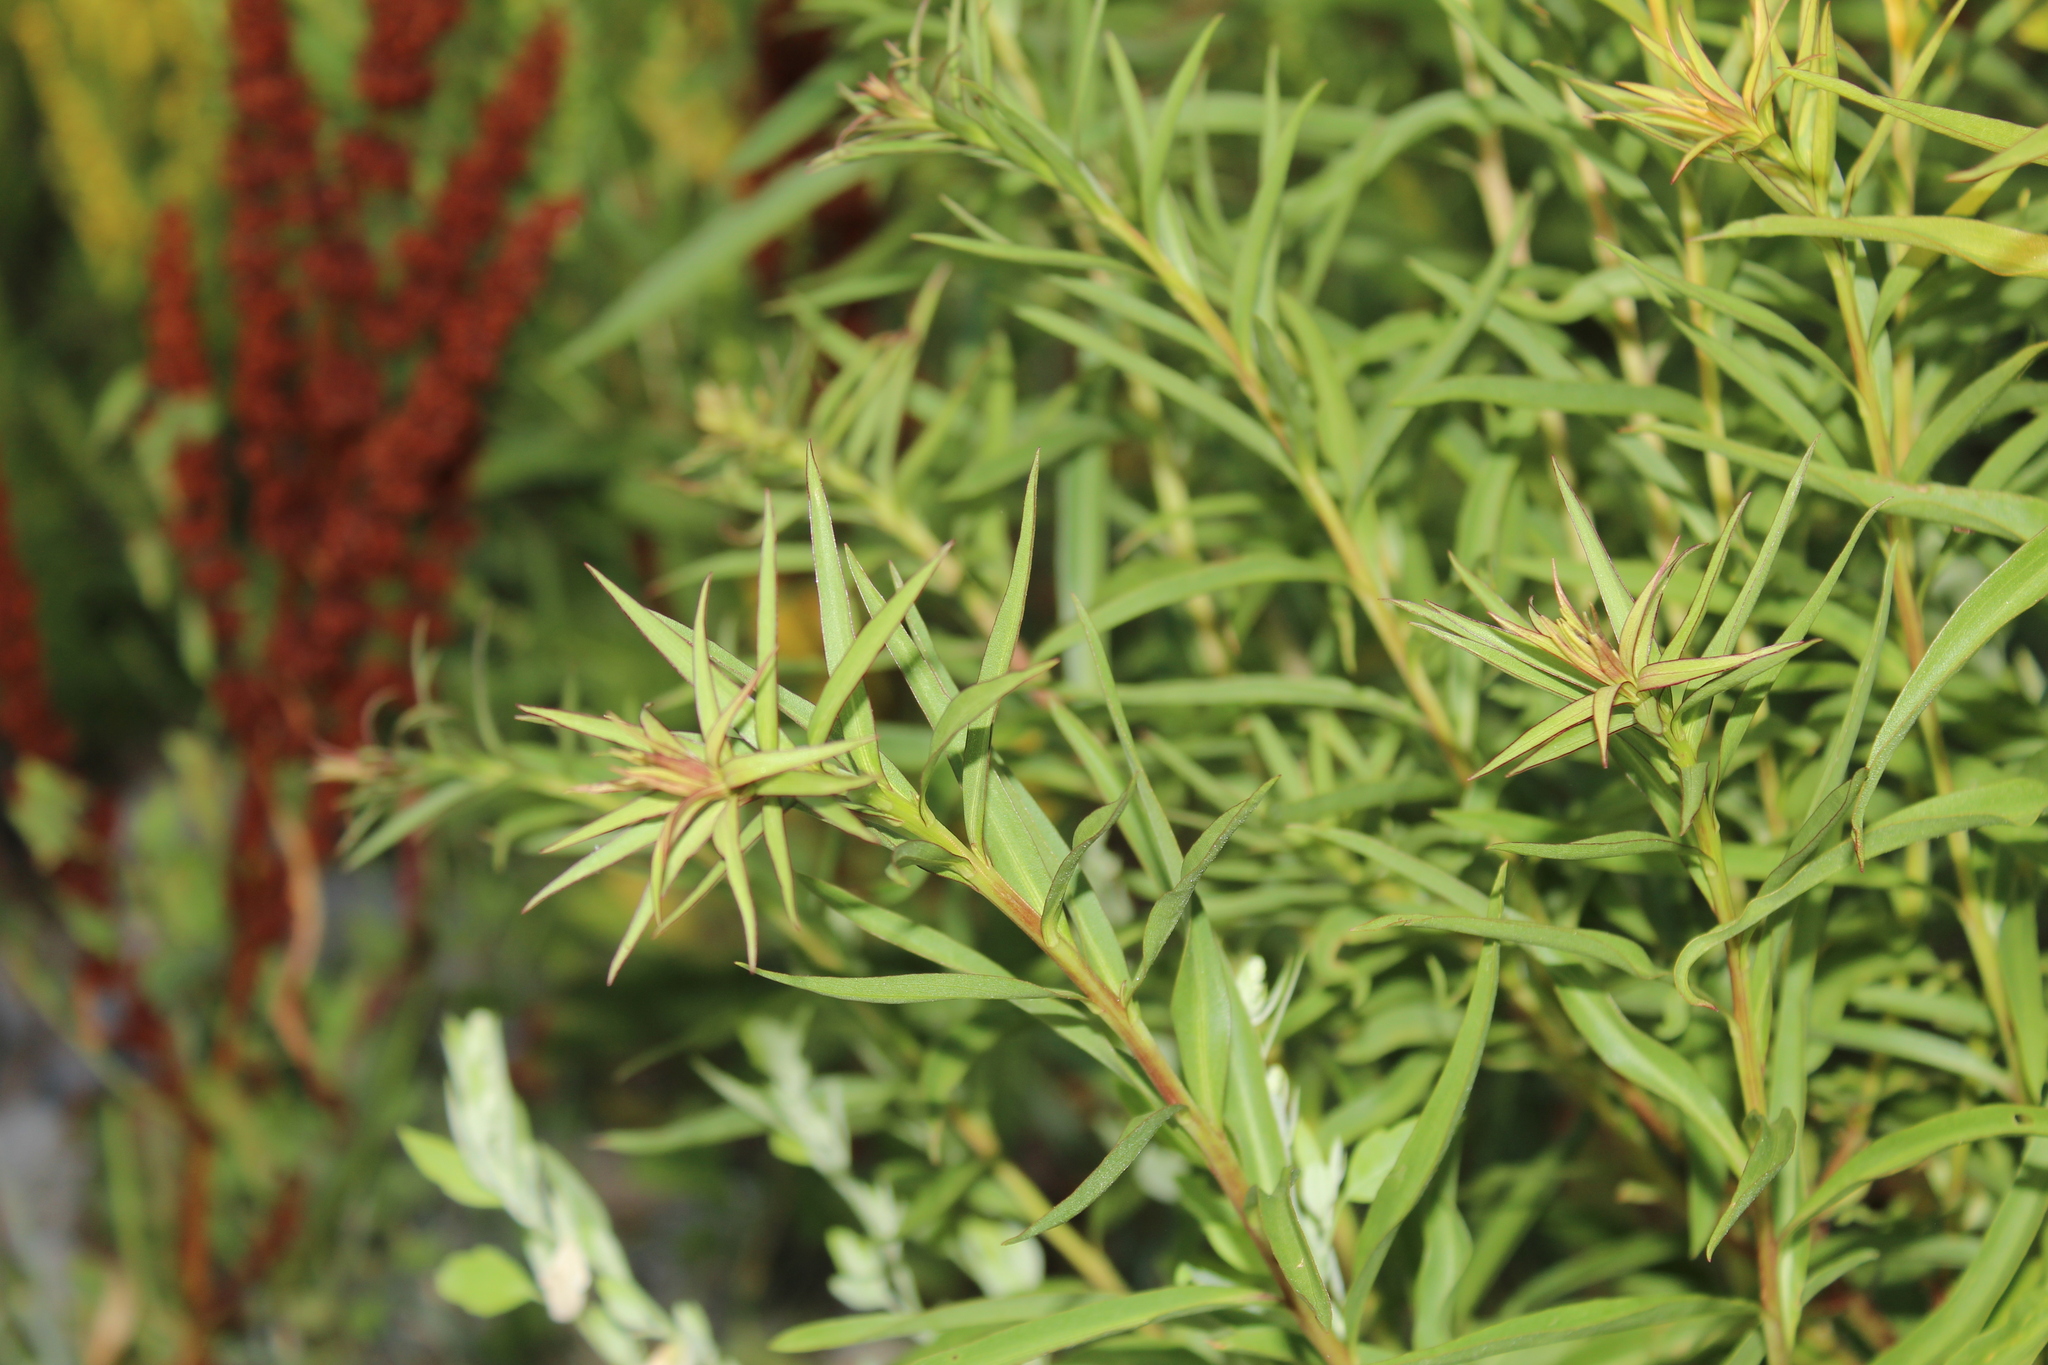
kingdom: Plantae
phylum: Tracheophyta
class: Magnoliopsida
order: Asterales
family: Asteraceae
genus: Solidago
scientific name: Solidago sempervirens
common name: Salt-marsh goldenrod
